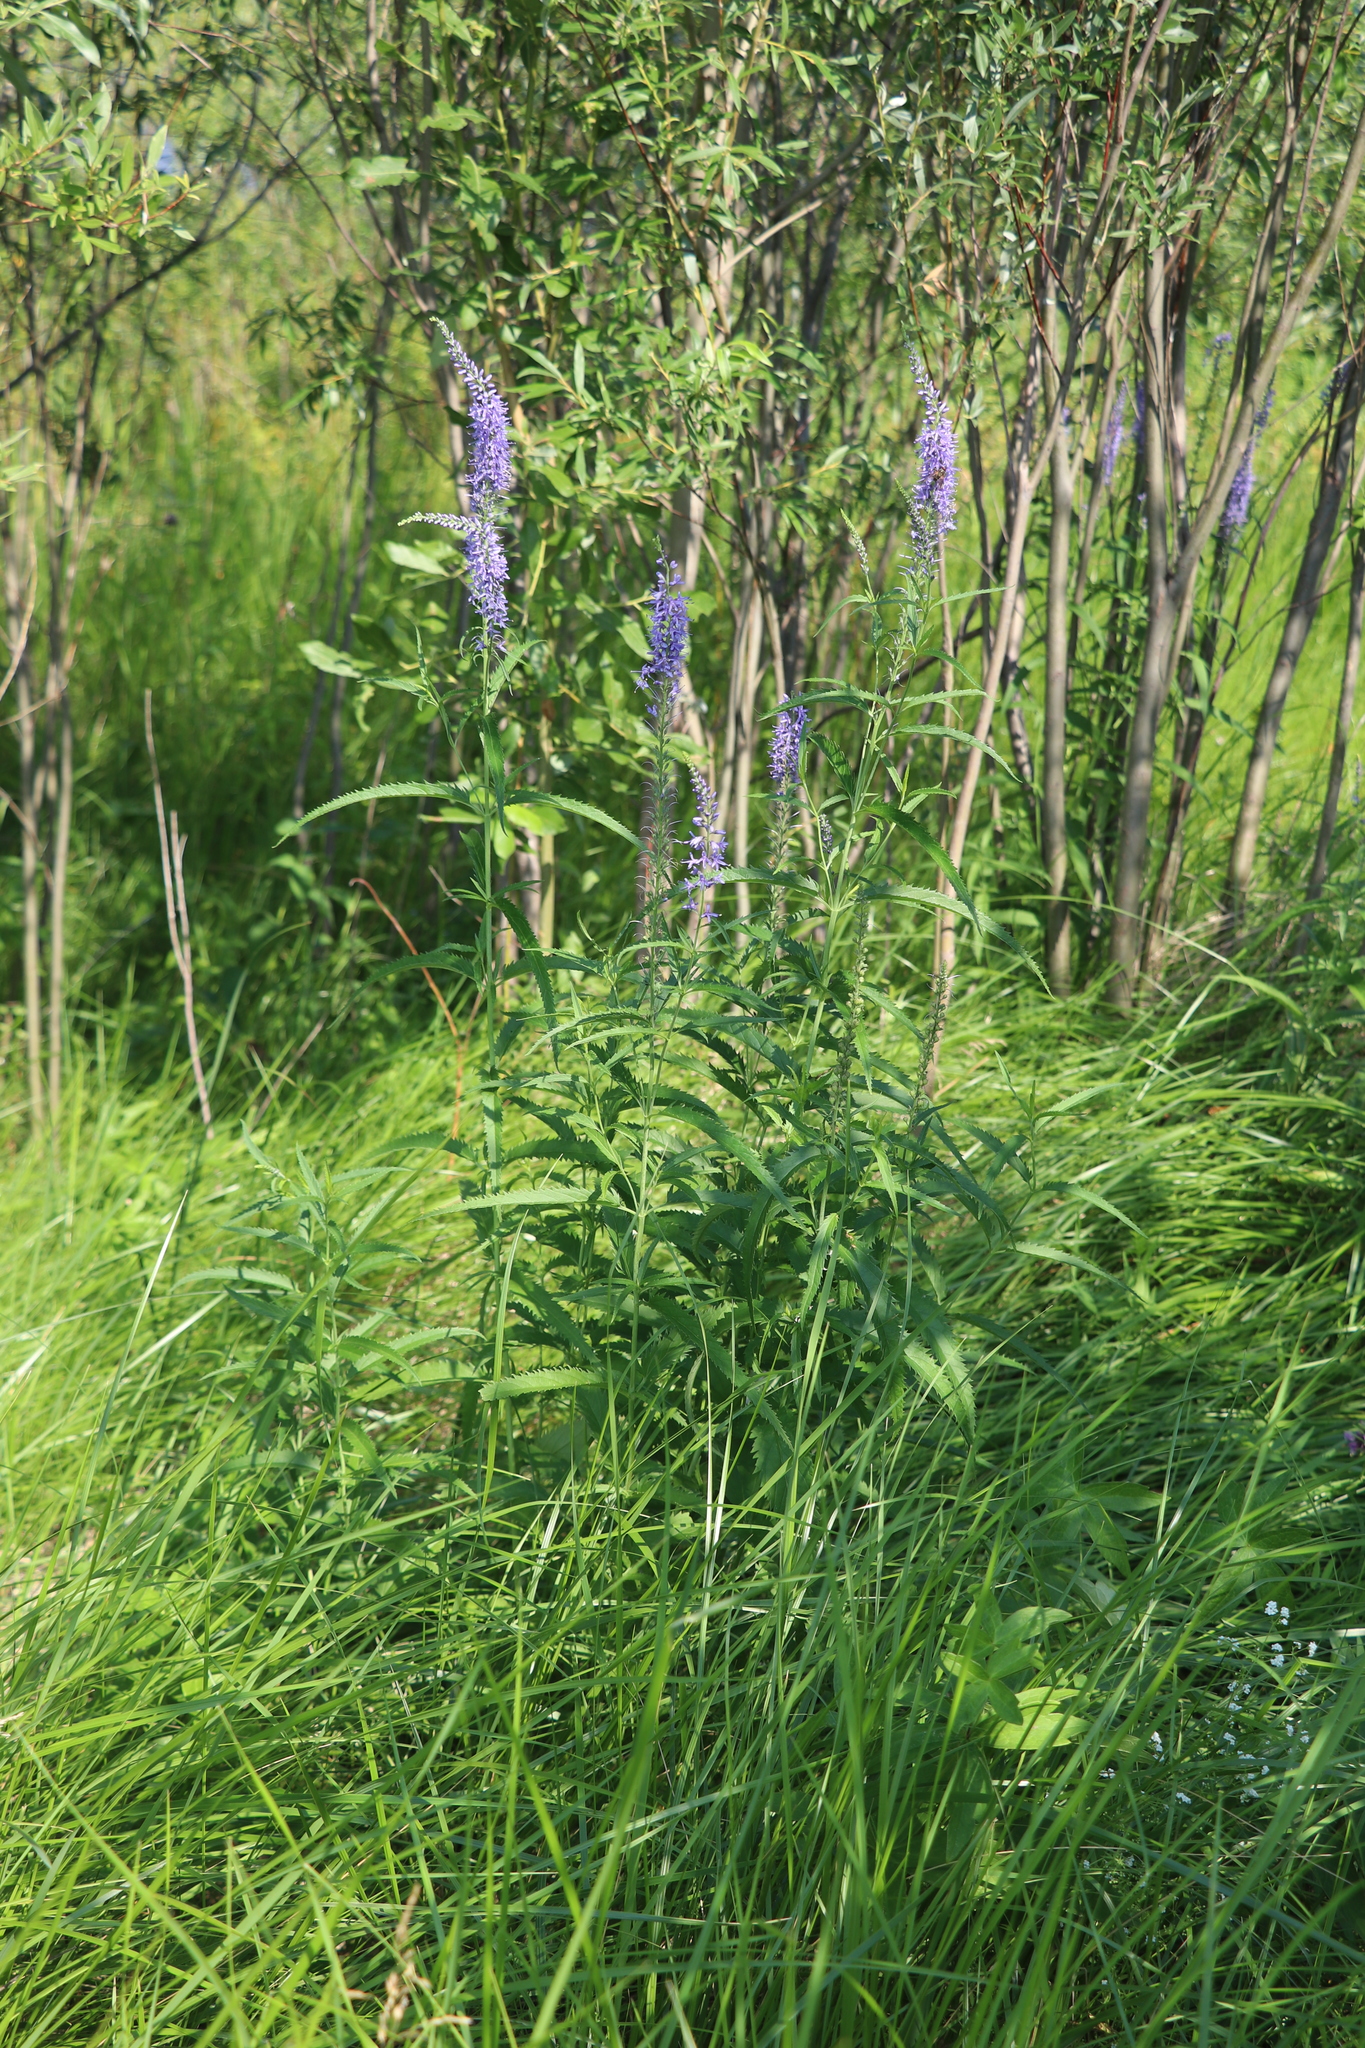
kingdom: Plantae
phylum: Tracheophyta
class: Magnoliopsida
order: Lamiales
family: Plantaginaceae
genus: Veronica
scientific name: Veronica longifolia
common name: Garden speedwell
